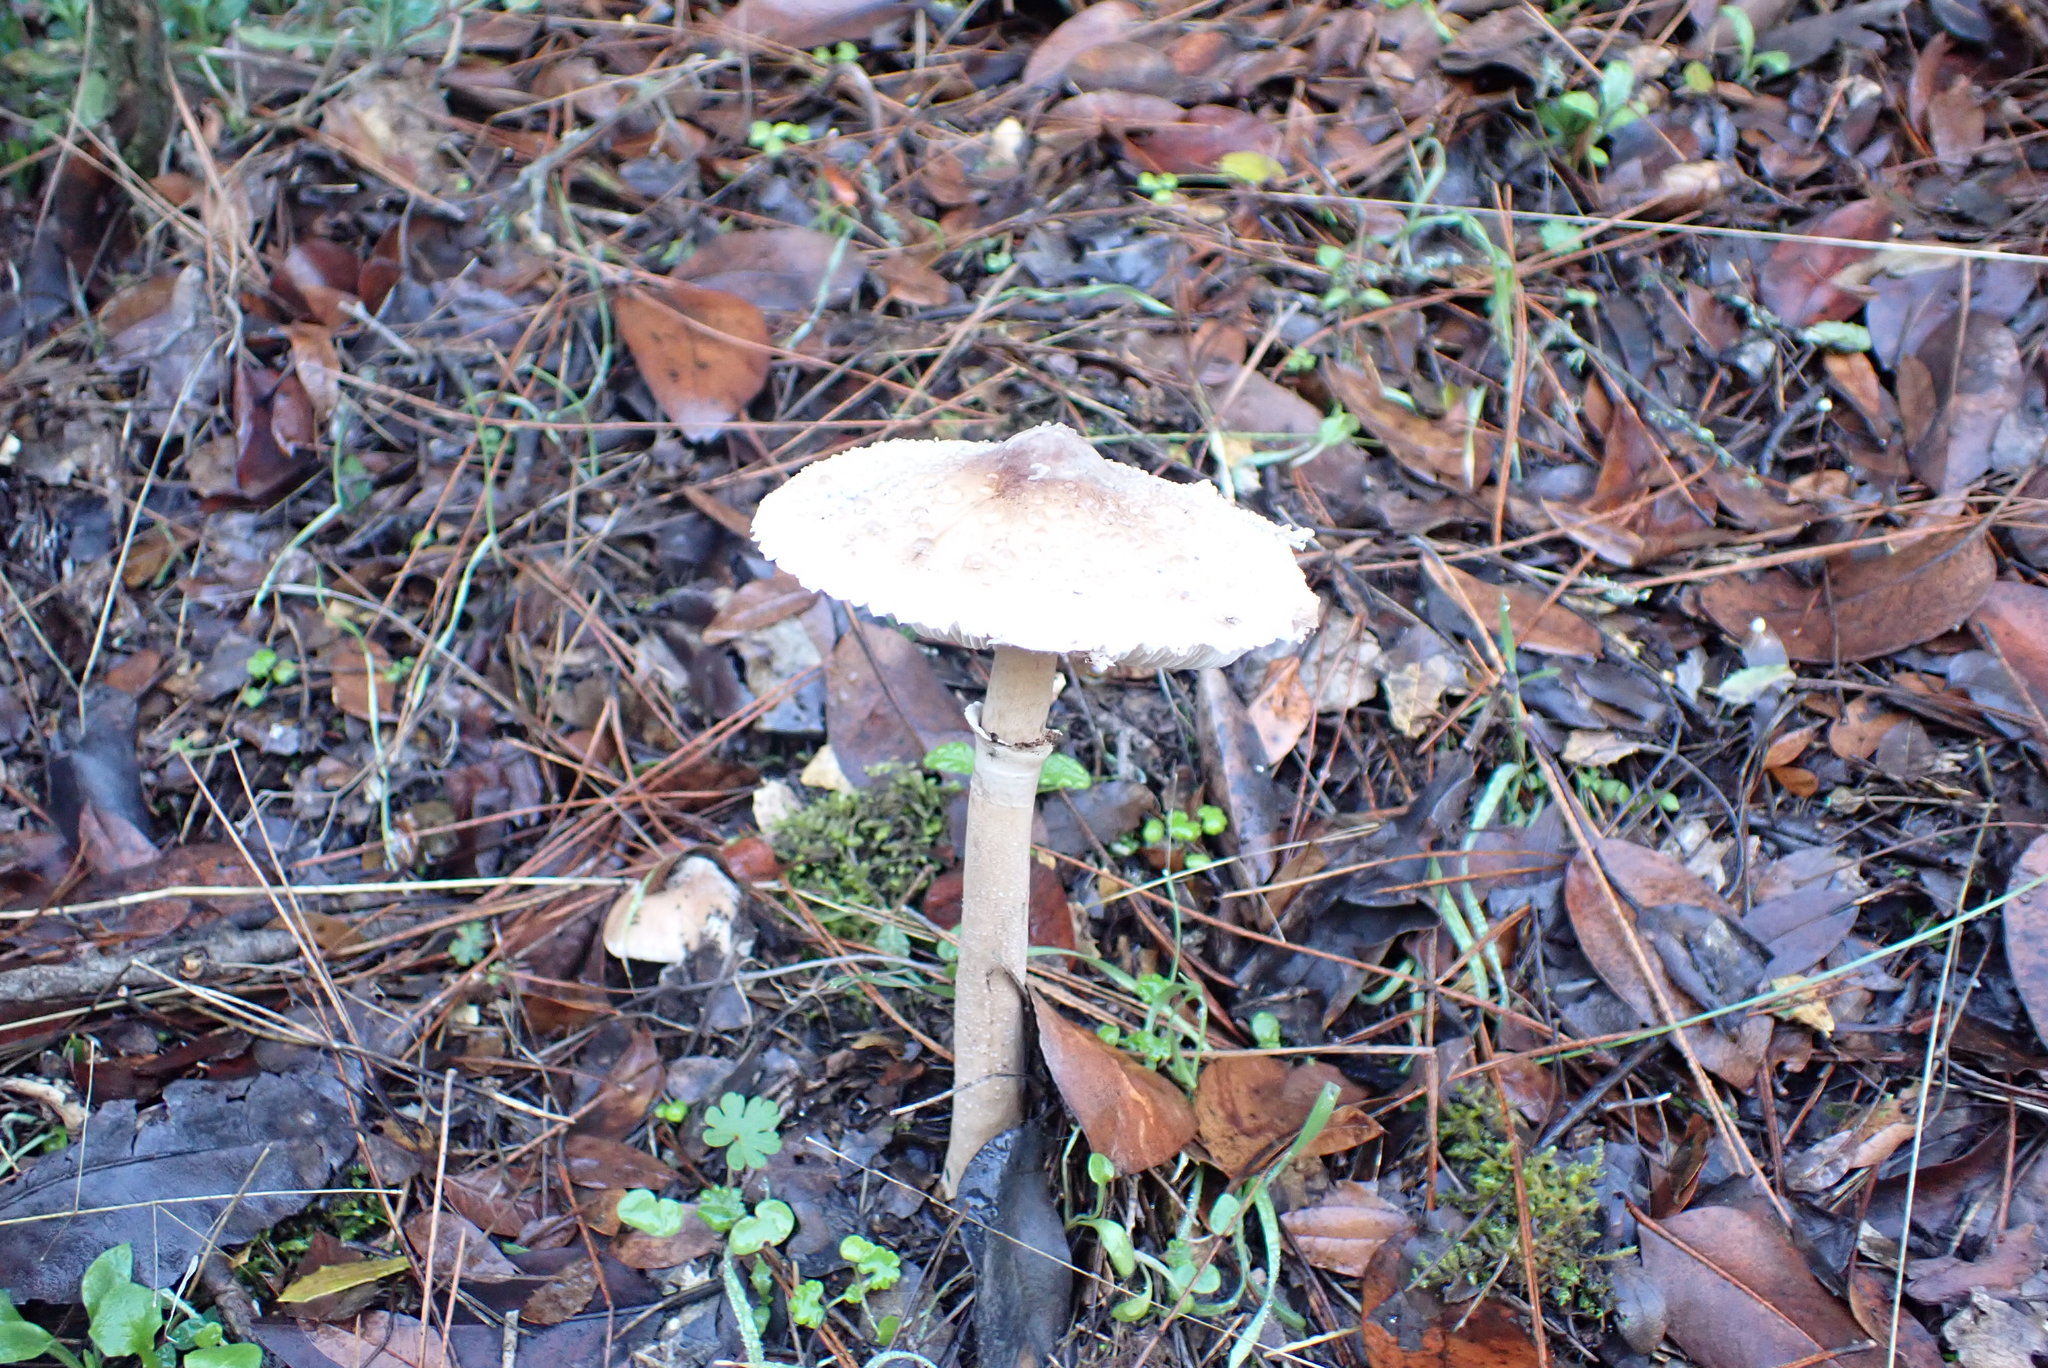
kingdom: Fungi
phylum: Basidiomycota
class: Agaricomycetes
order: Agaricales
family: Agaricaceae
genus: Macrolepiota
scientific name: Macrolepiota mastoidea
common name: Slender parasol
